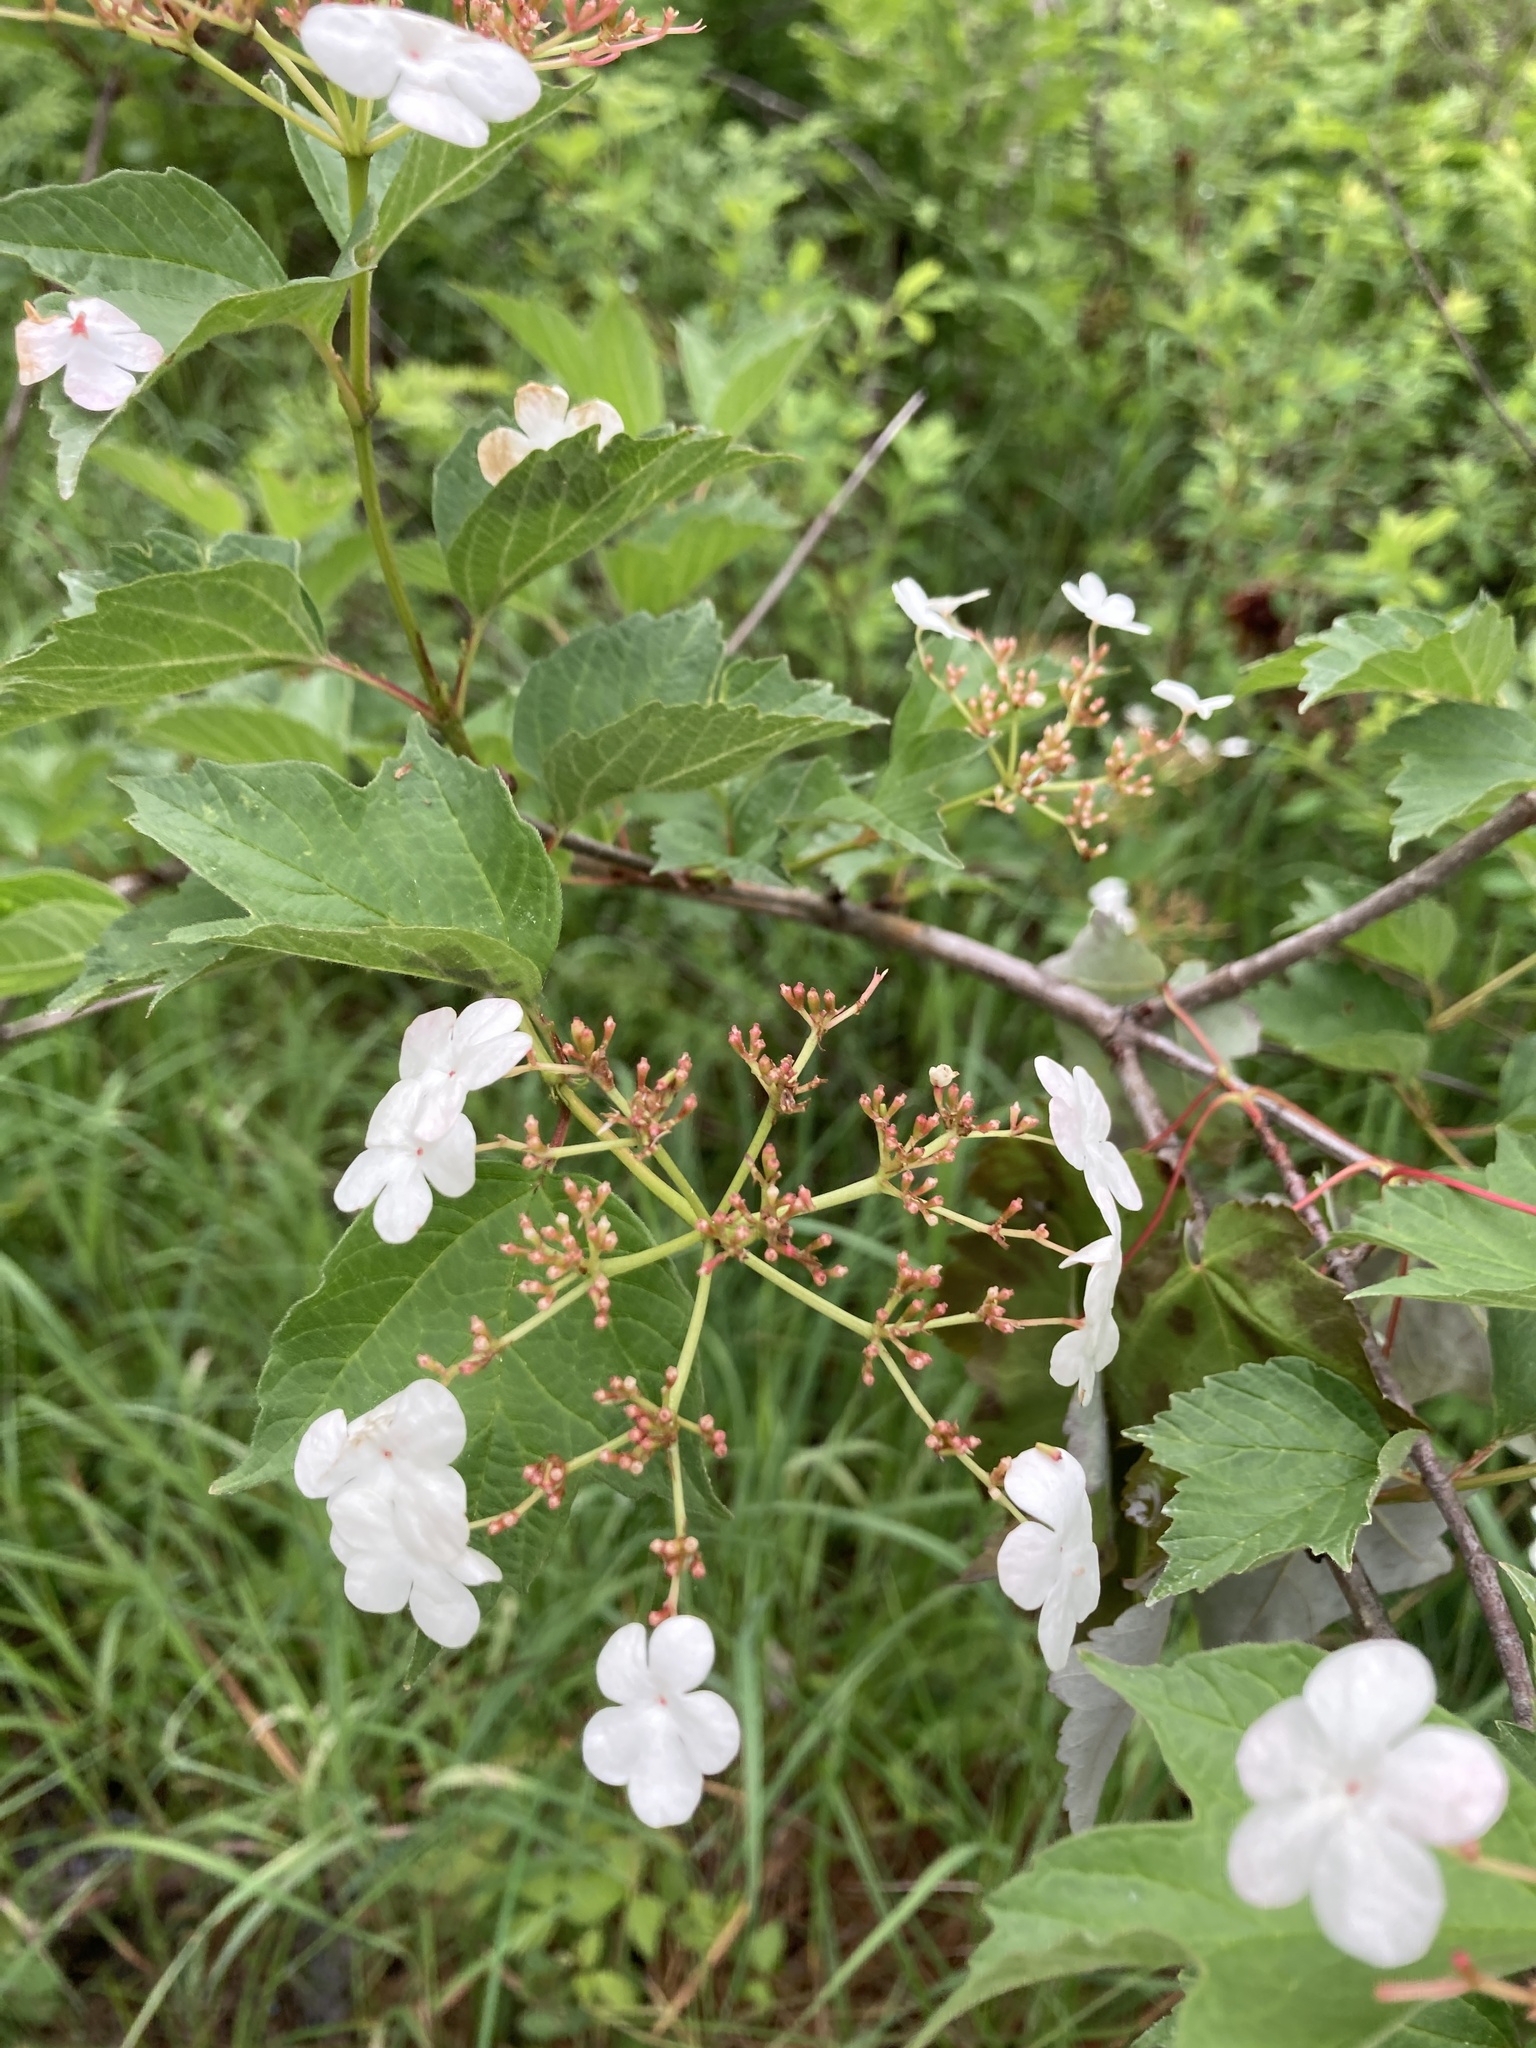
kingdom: Plantae
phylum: Tracheophyta
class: Magnoliopsida
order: Dipsacales
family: Viburnaceae
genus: Viburnum
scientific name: Viburnum opulus
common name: Guelder-rose
